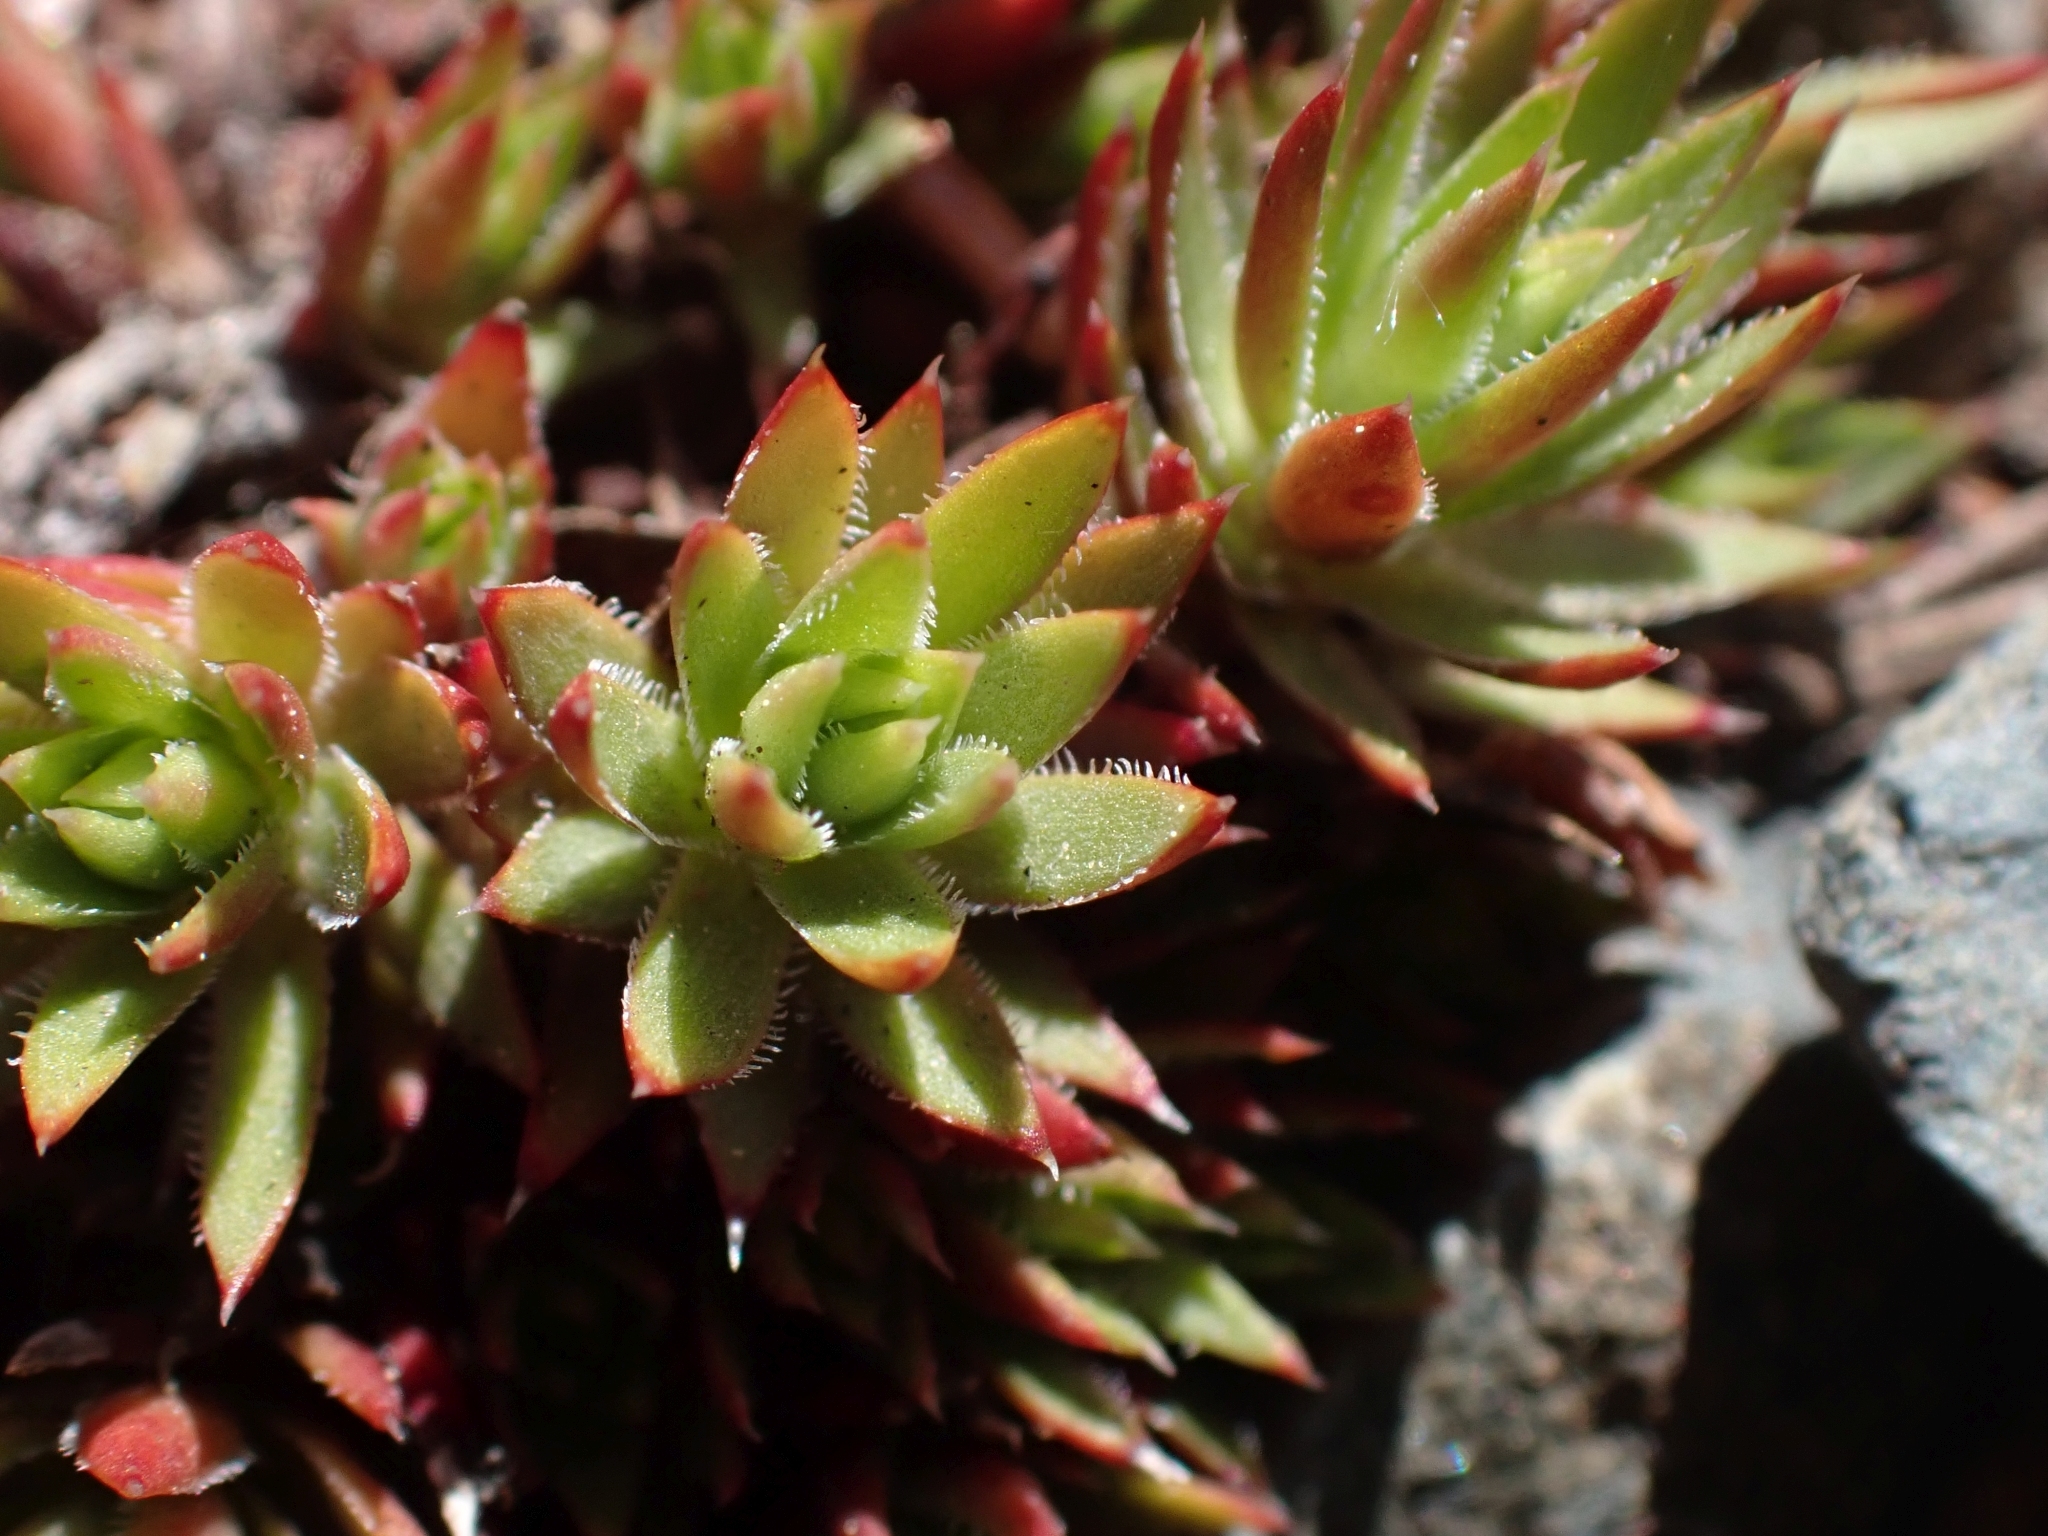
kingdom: Plantae
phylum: Tracheophyta
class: Magnoliopsida
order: Saxifragales
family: Saxifragaceae
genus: Saxifraga
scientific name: Saxifraga bronchialis
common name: Matted saxifrage
